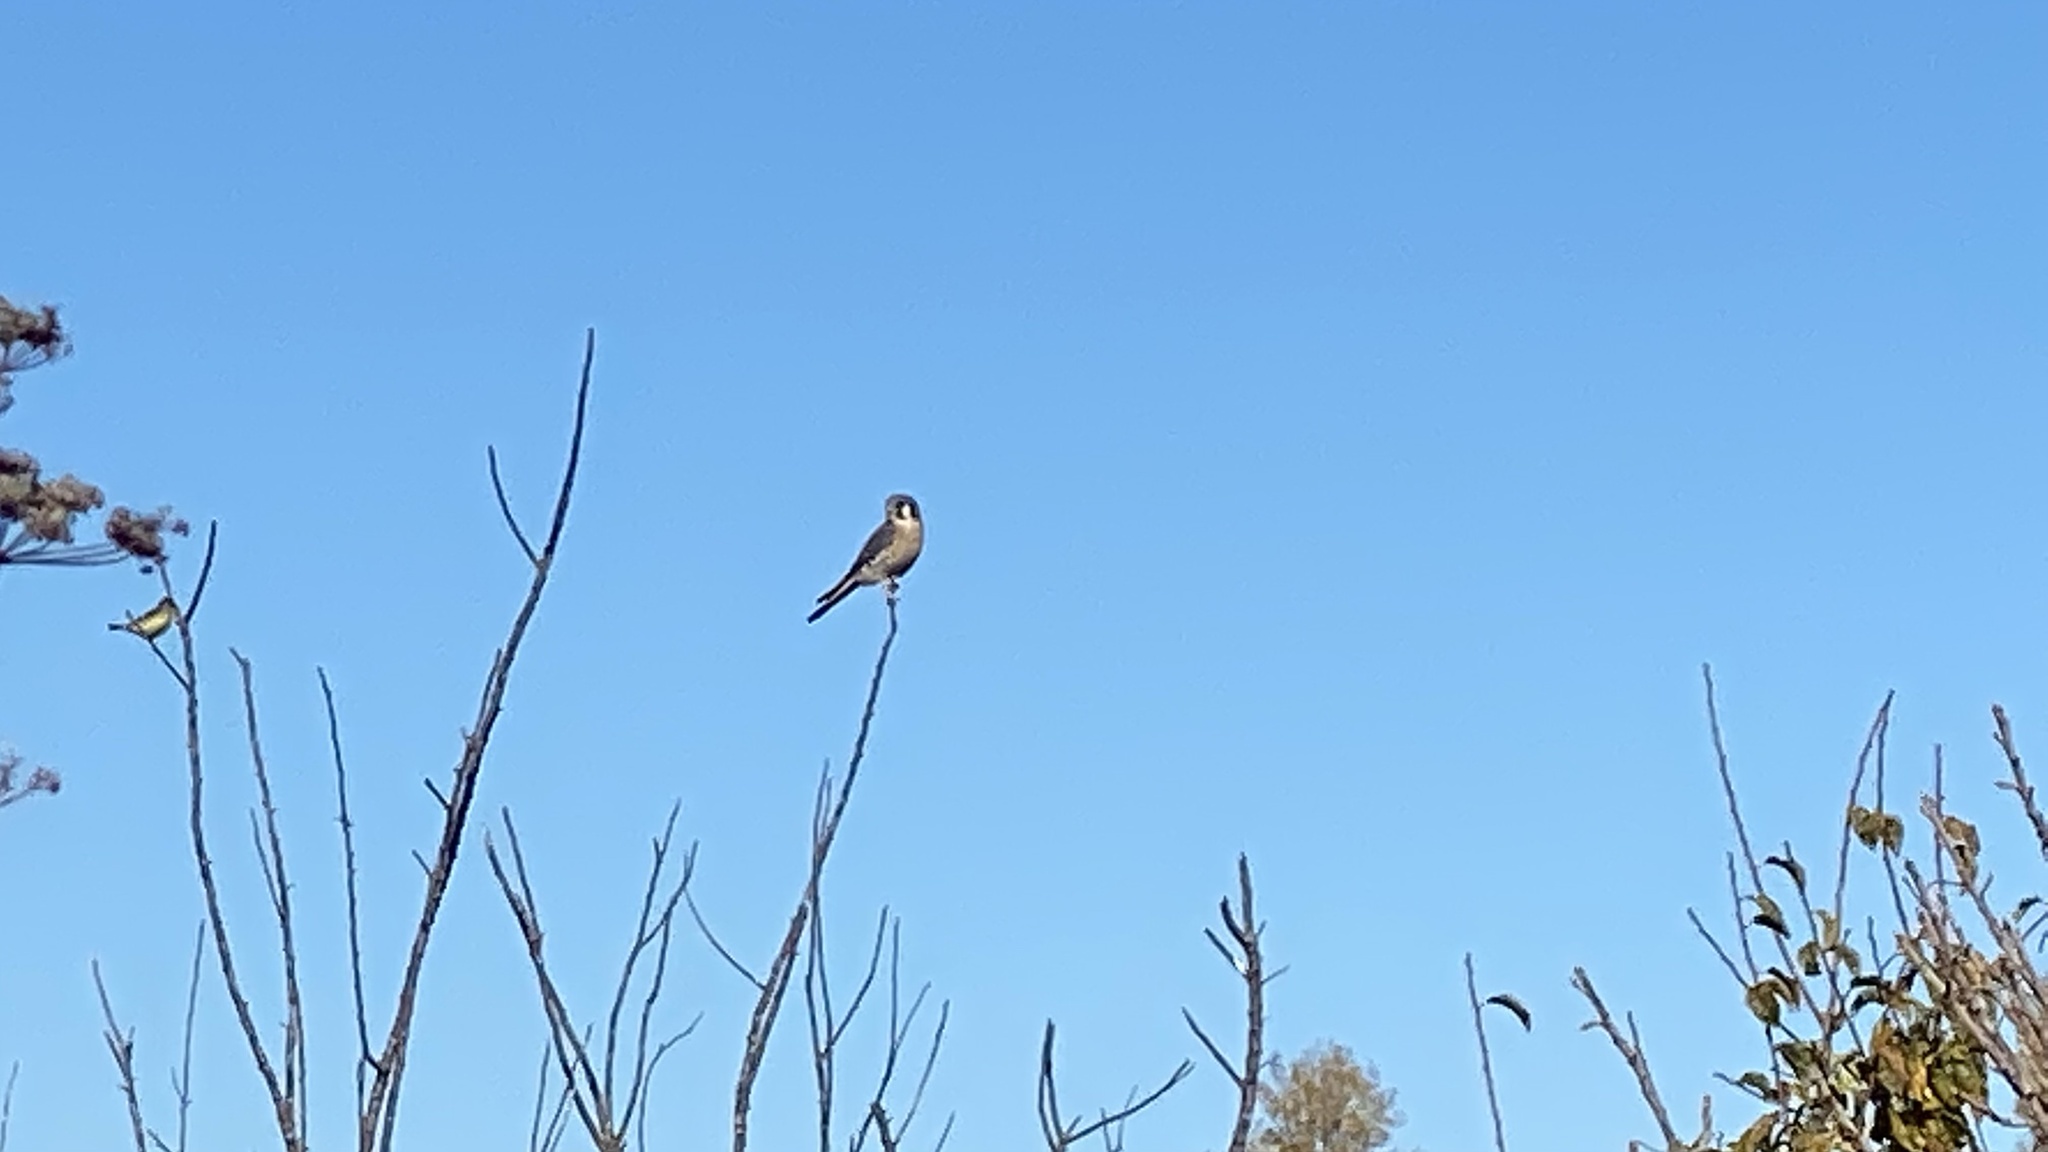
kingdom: Animalia
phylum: Chordata
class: Aves
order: Falconiformes
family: Falconidae
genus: Falco
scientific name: Falco sparverius
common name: American kestrel
